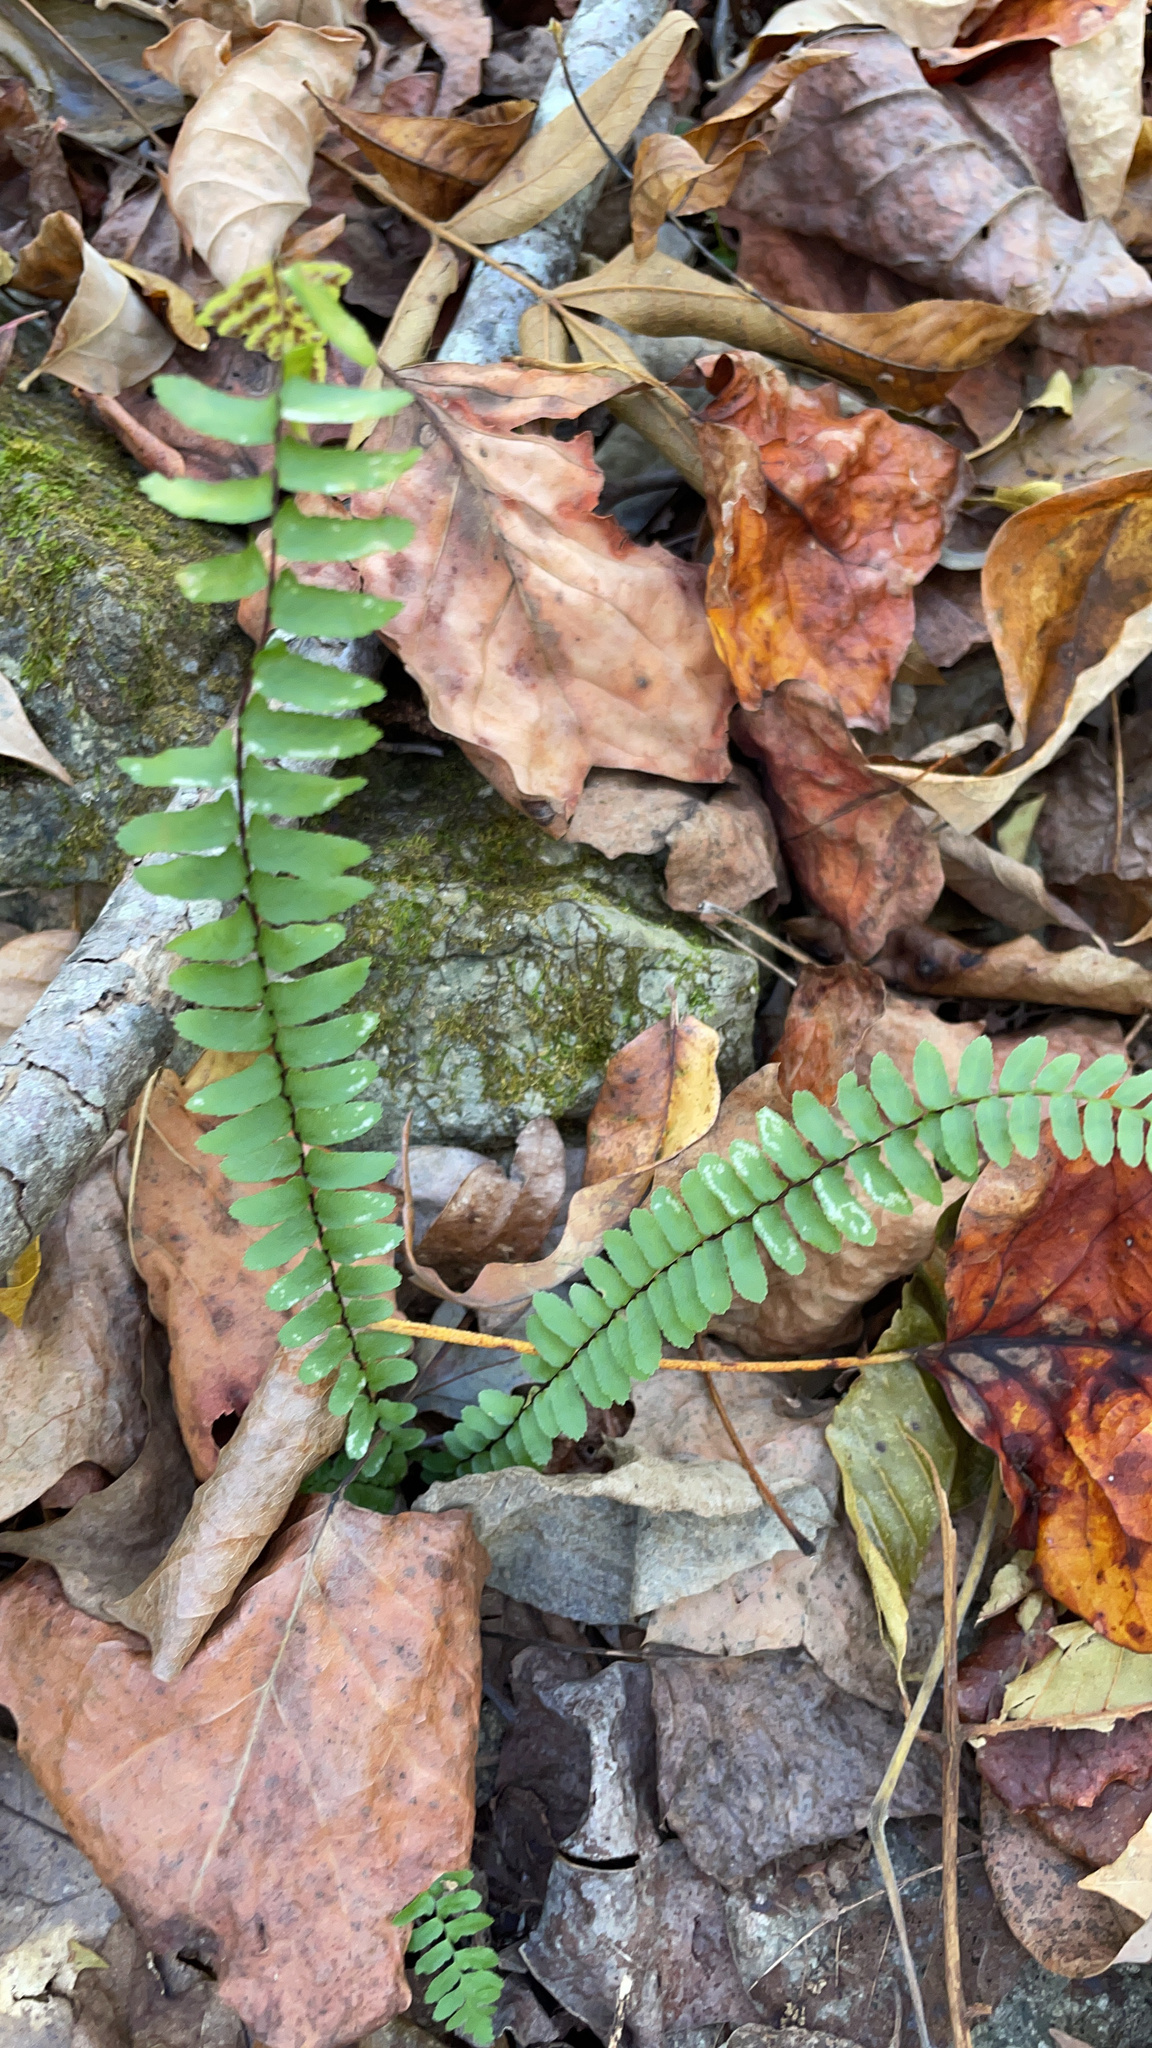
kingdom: Plantae
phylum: Tracheophyta
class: Polypodiopsida
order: Polypodiales
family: Aspleniaceae
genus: Asplenium
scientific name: Asplenium platyneuron
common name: Ebony spleenwort
